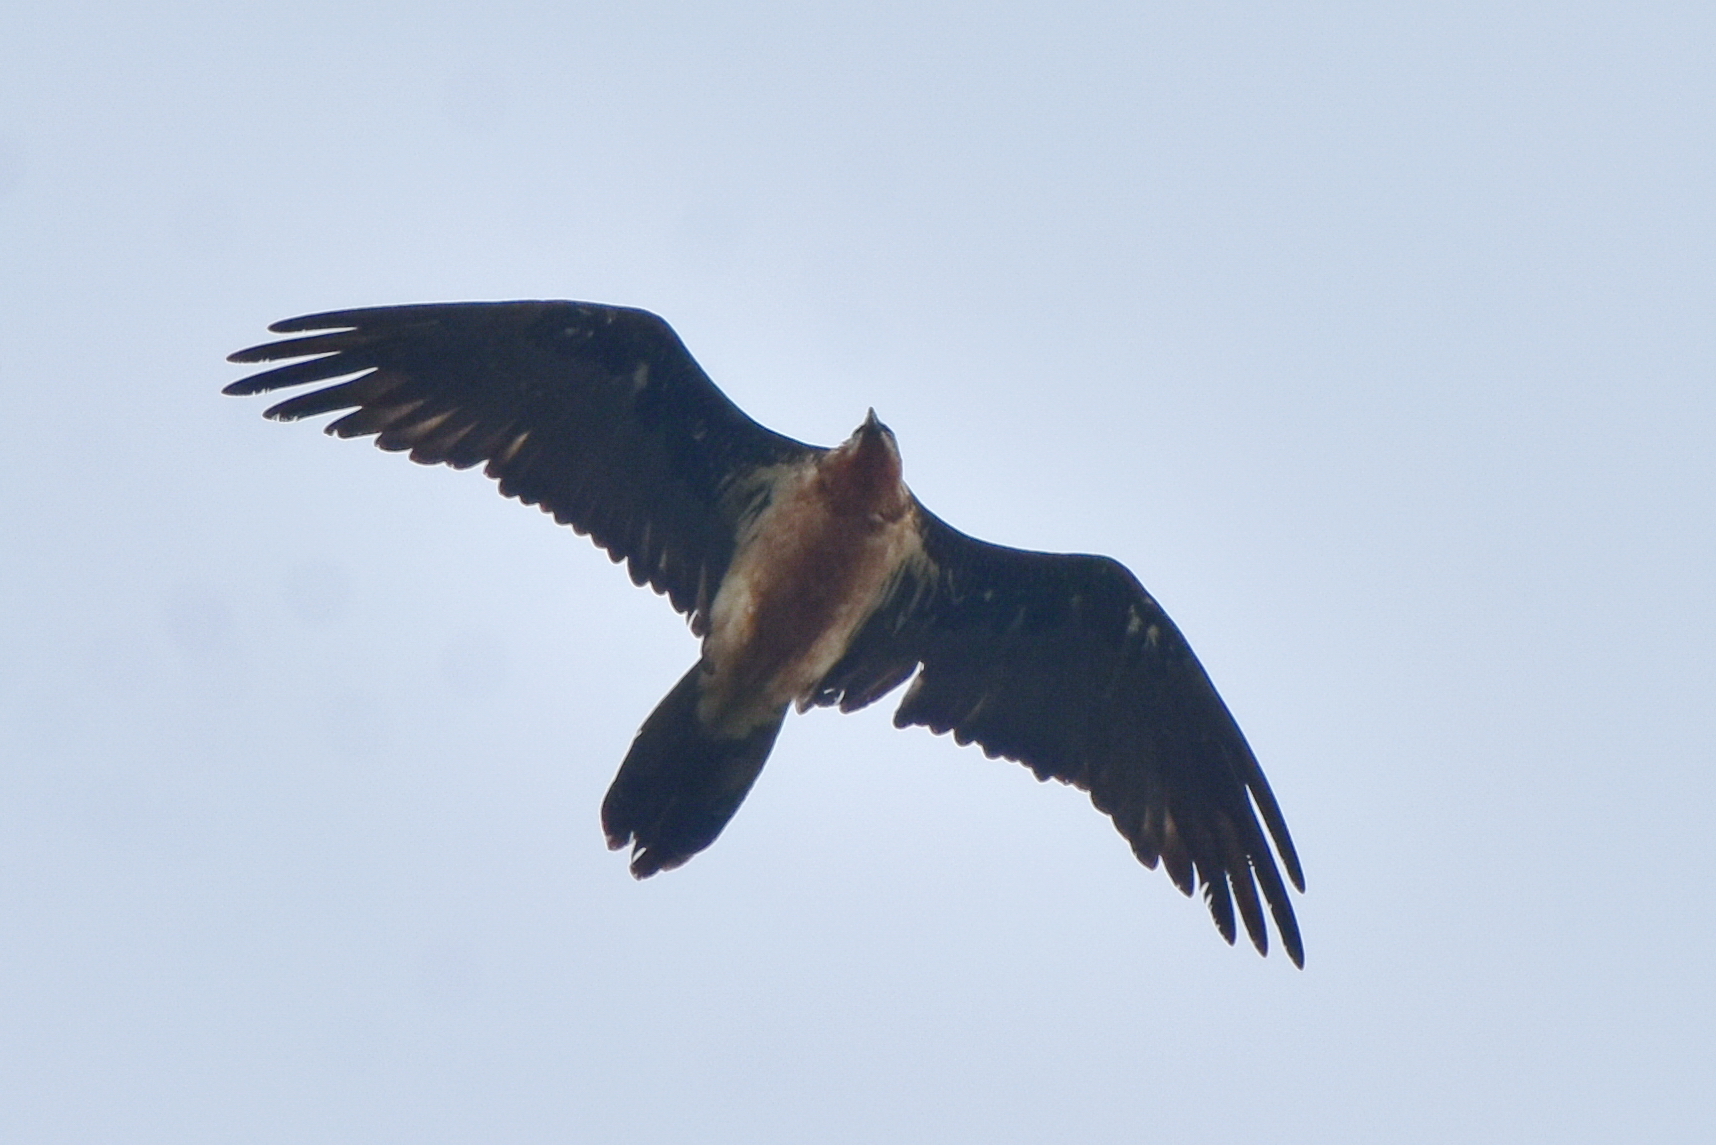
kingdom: Animalia
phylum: Chordata
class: Aves
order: Accipitriformes
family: Accipitridae
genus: Gypaetus
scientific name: Gypaetus barbatus
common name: Bearded vulture
